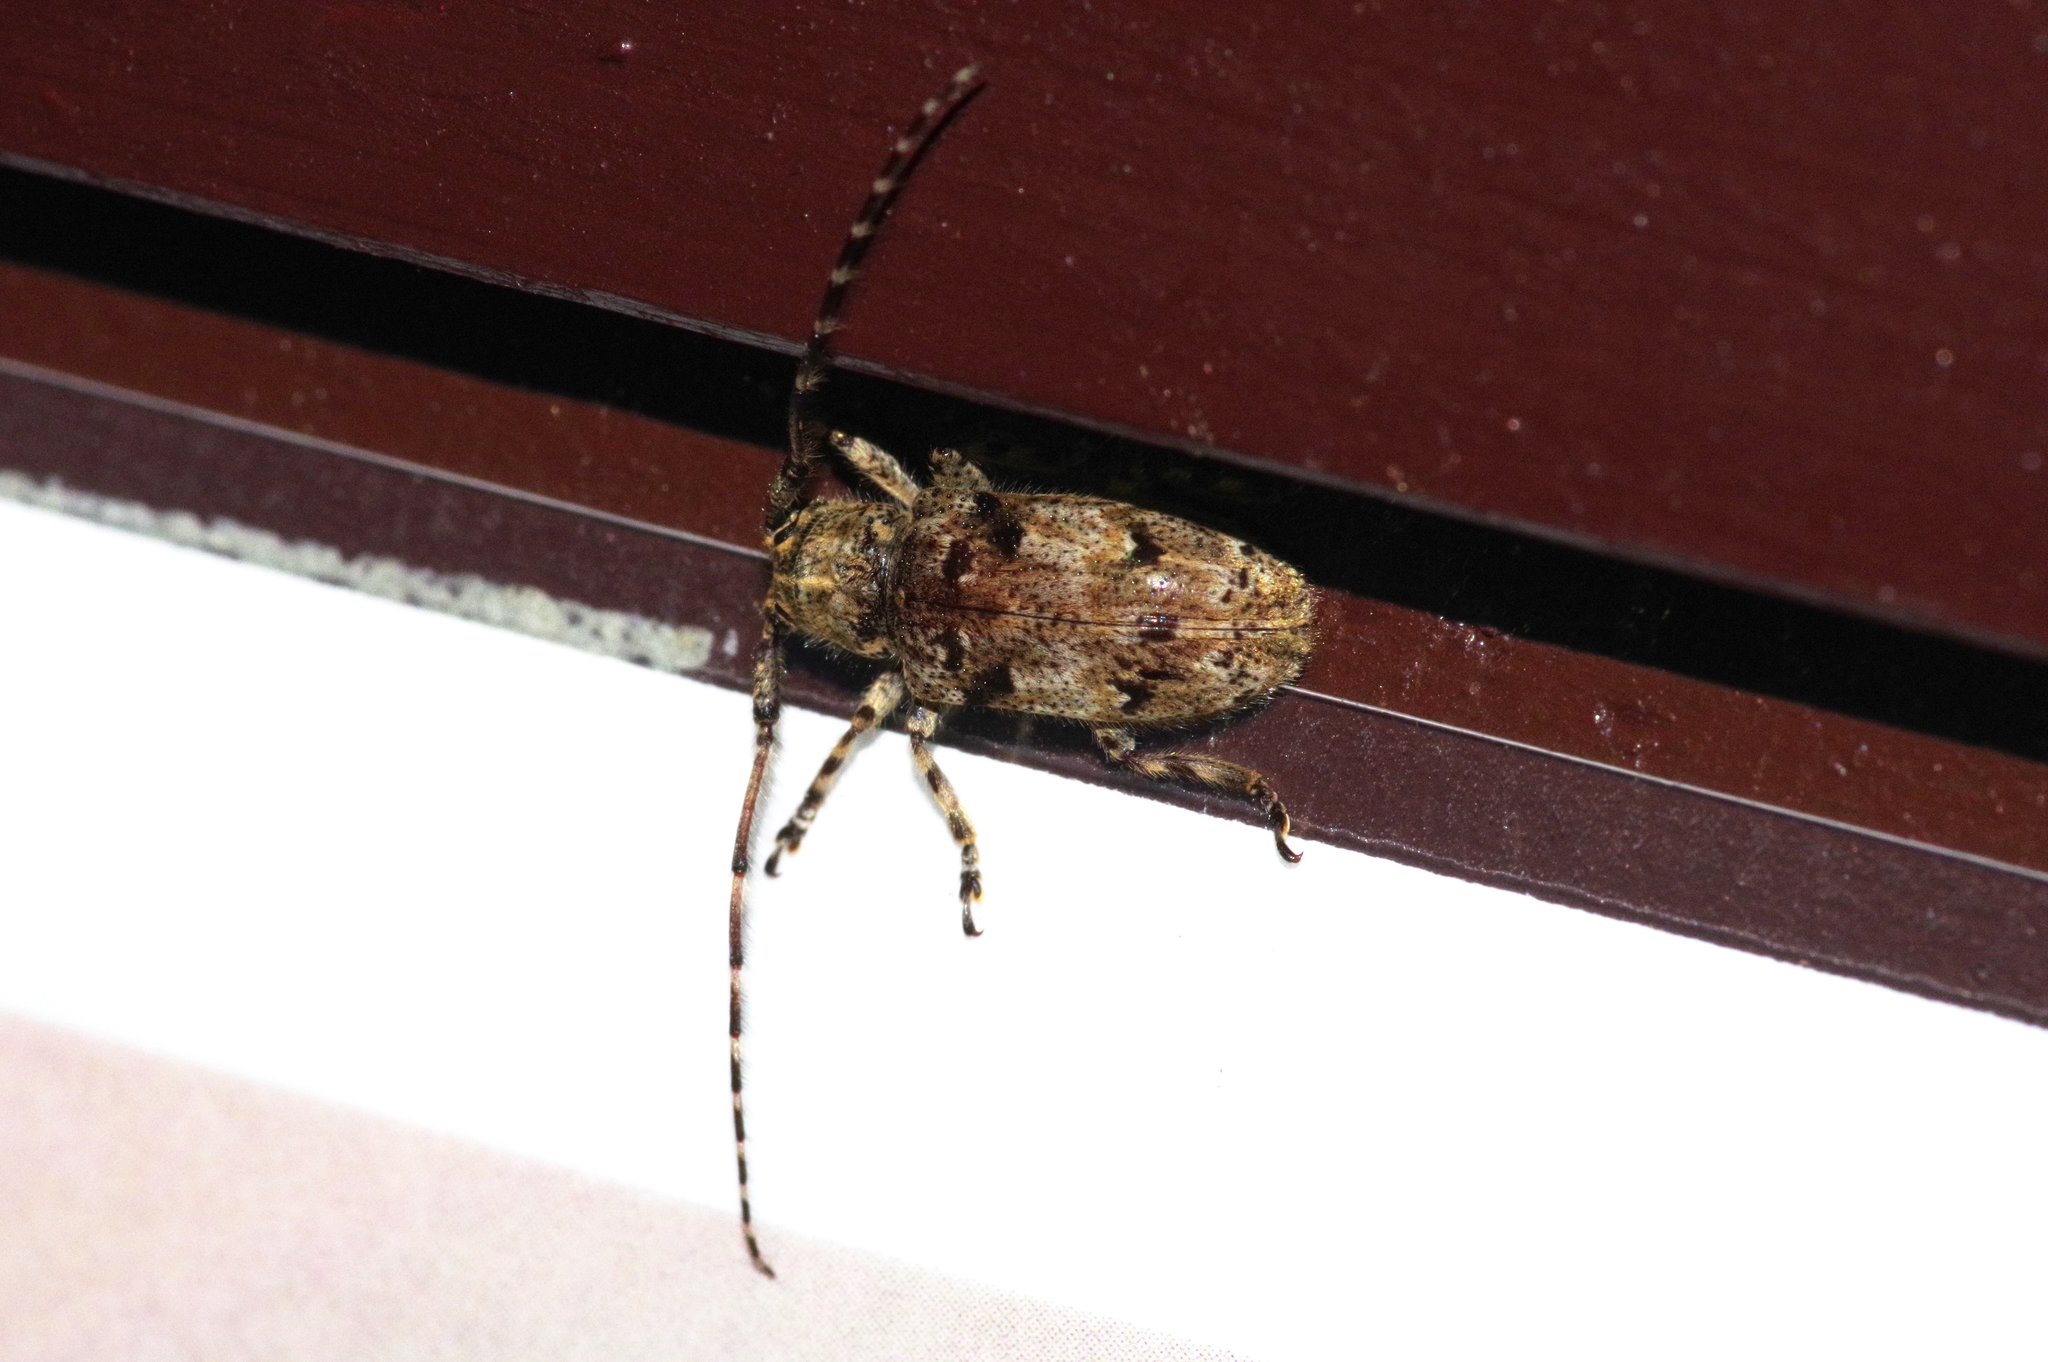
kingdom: Animalia
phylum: Arthropoda
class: Insecta
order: Coleoptera
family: Cerambycidae
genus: Mesosa
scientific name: Mesosa pictipes
